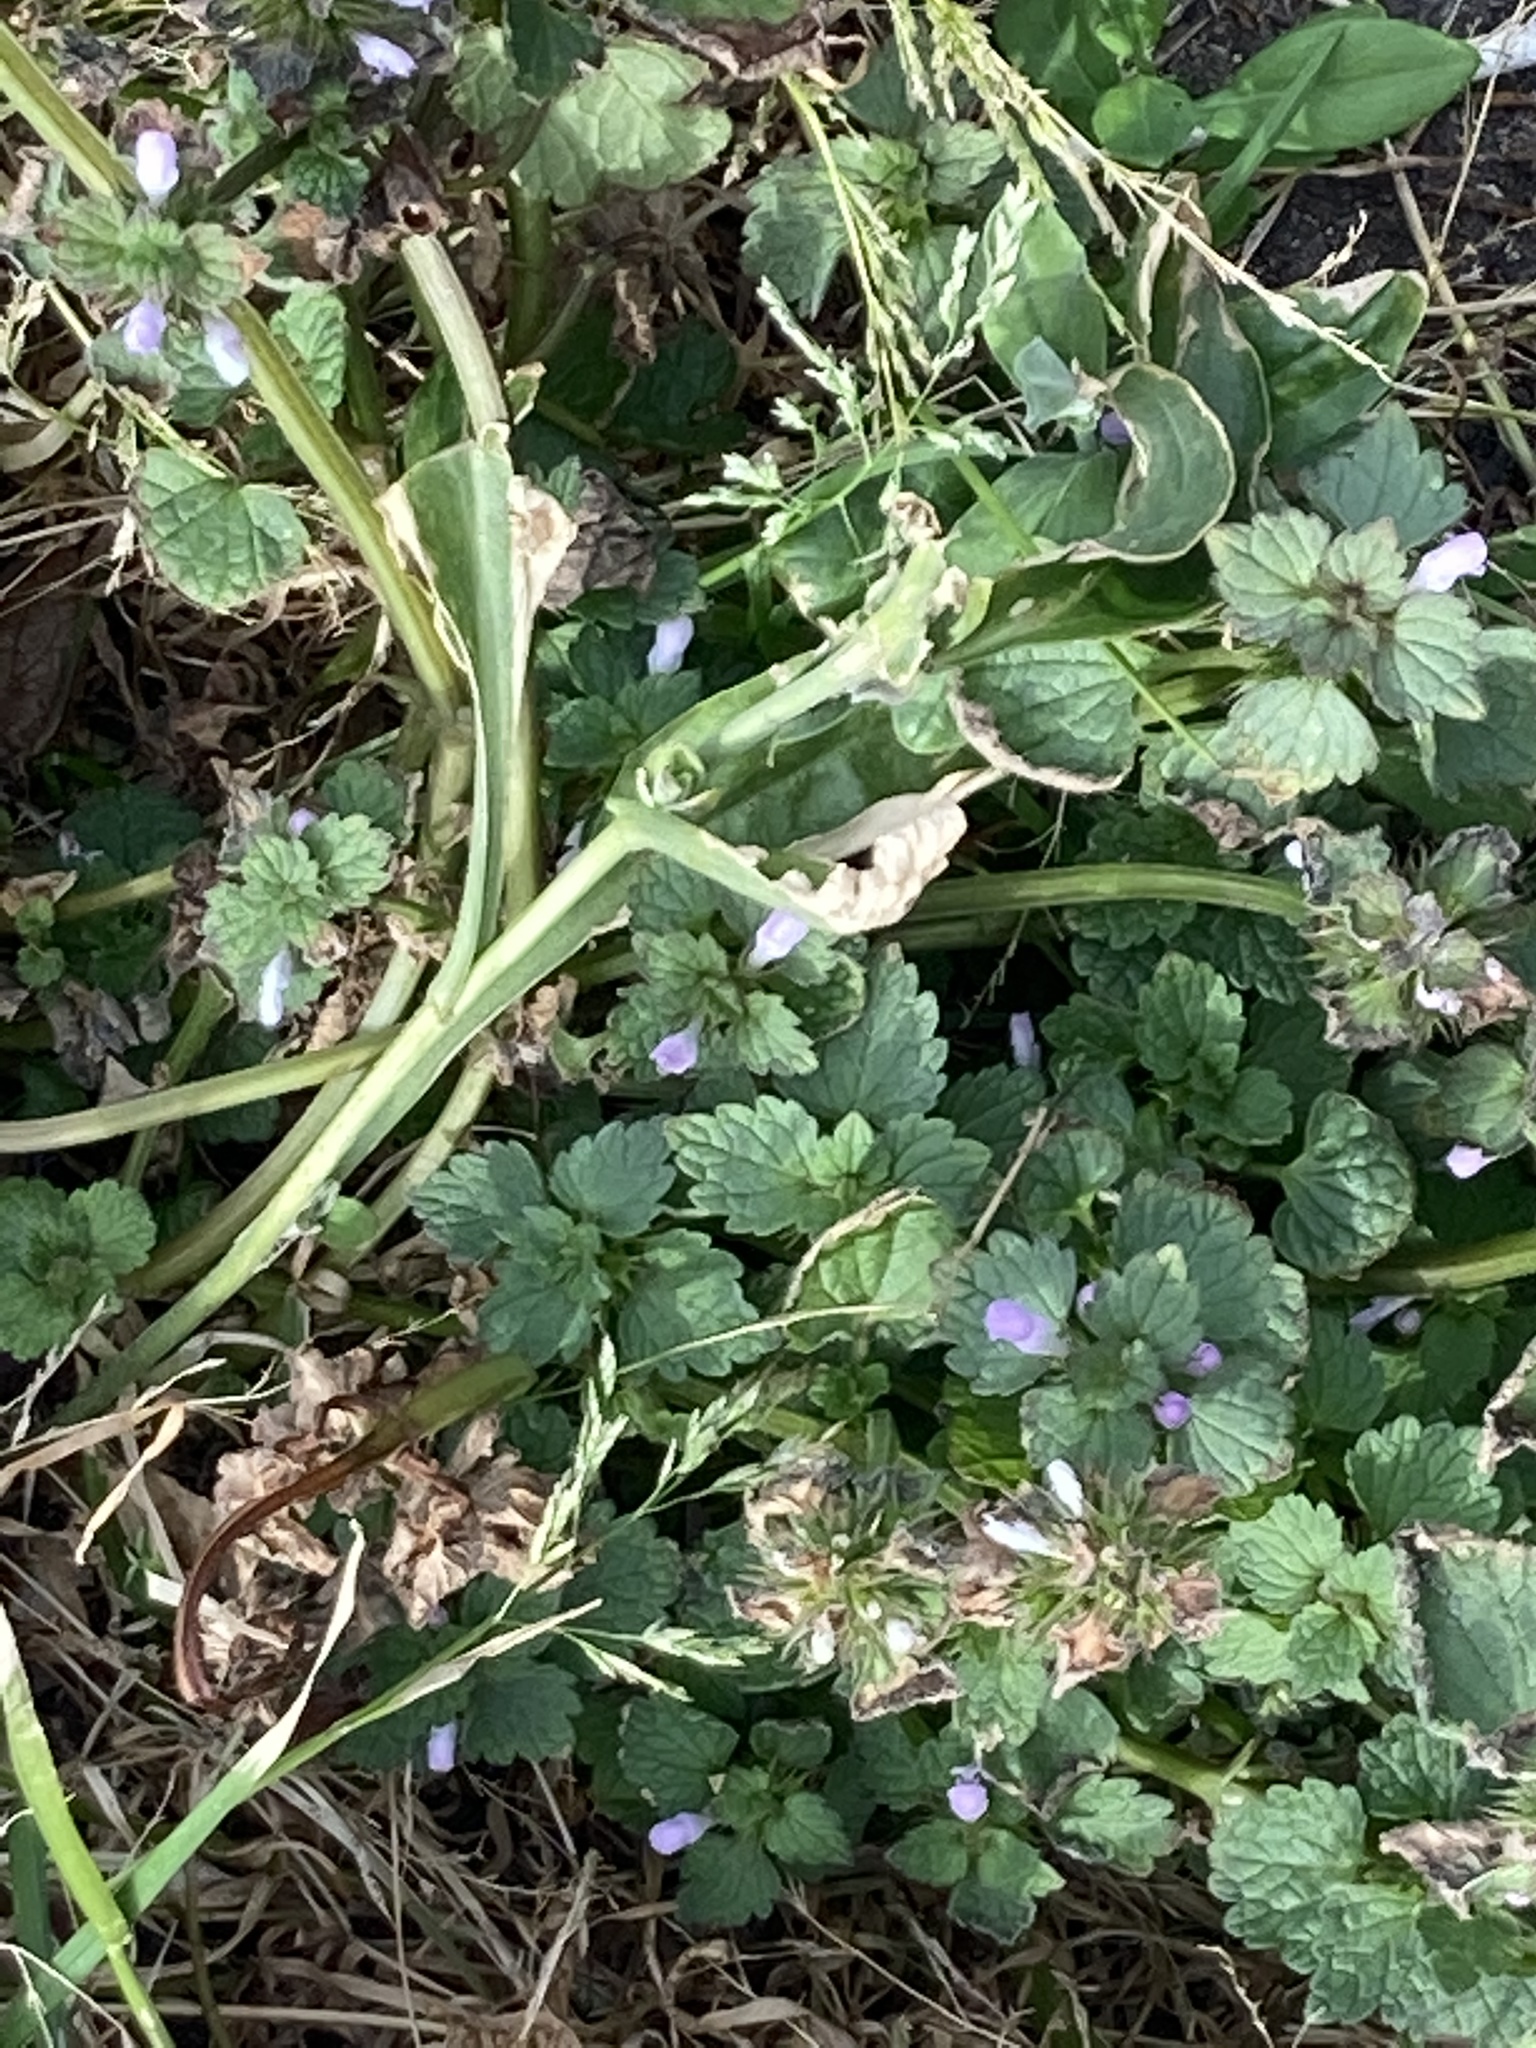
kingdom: Plantae
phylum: Tracheophyta
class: Magnoliopsida
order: Lamiales
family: Lamiaceae
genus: Lamium
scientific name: Lamium purpureum
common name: Red dead-nettle
